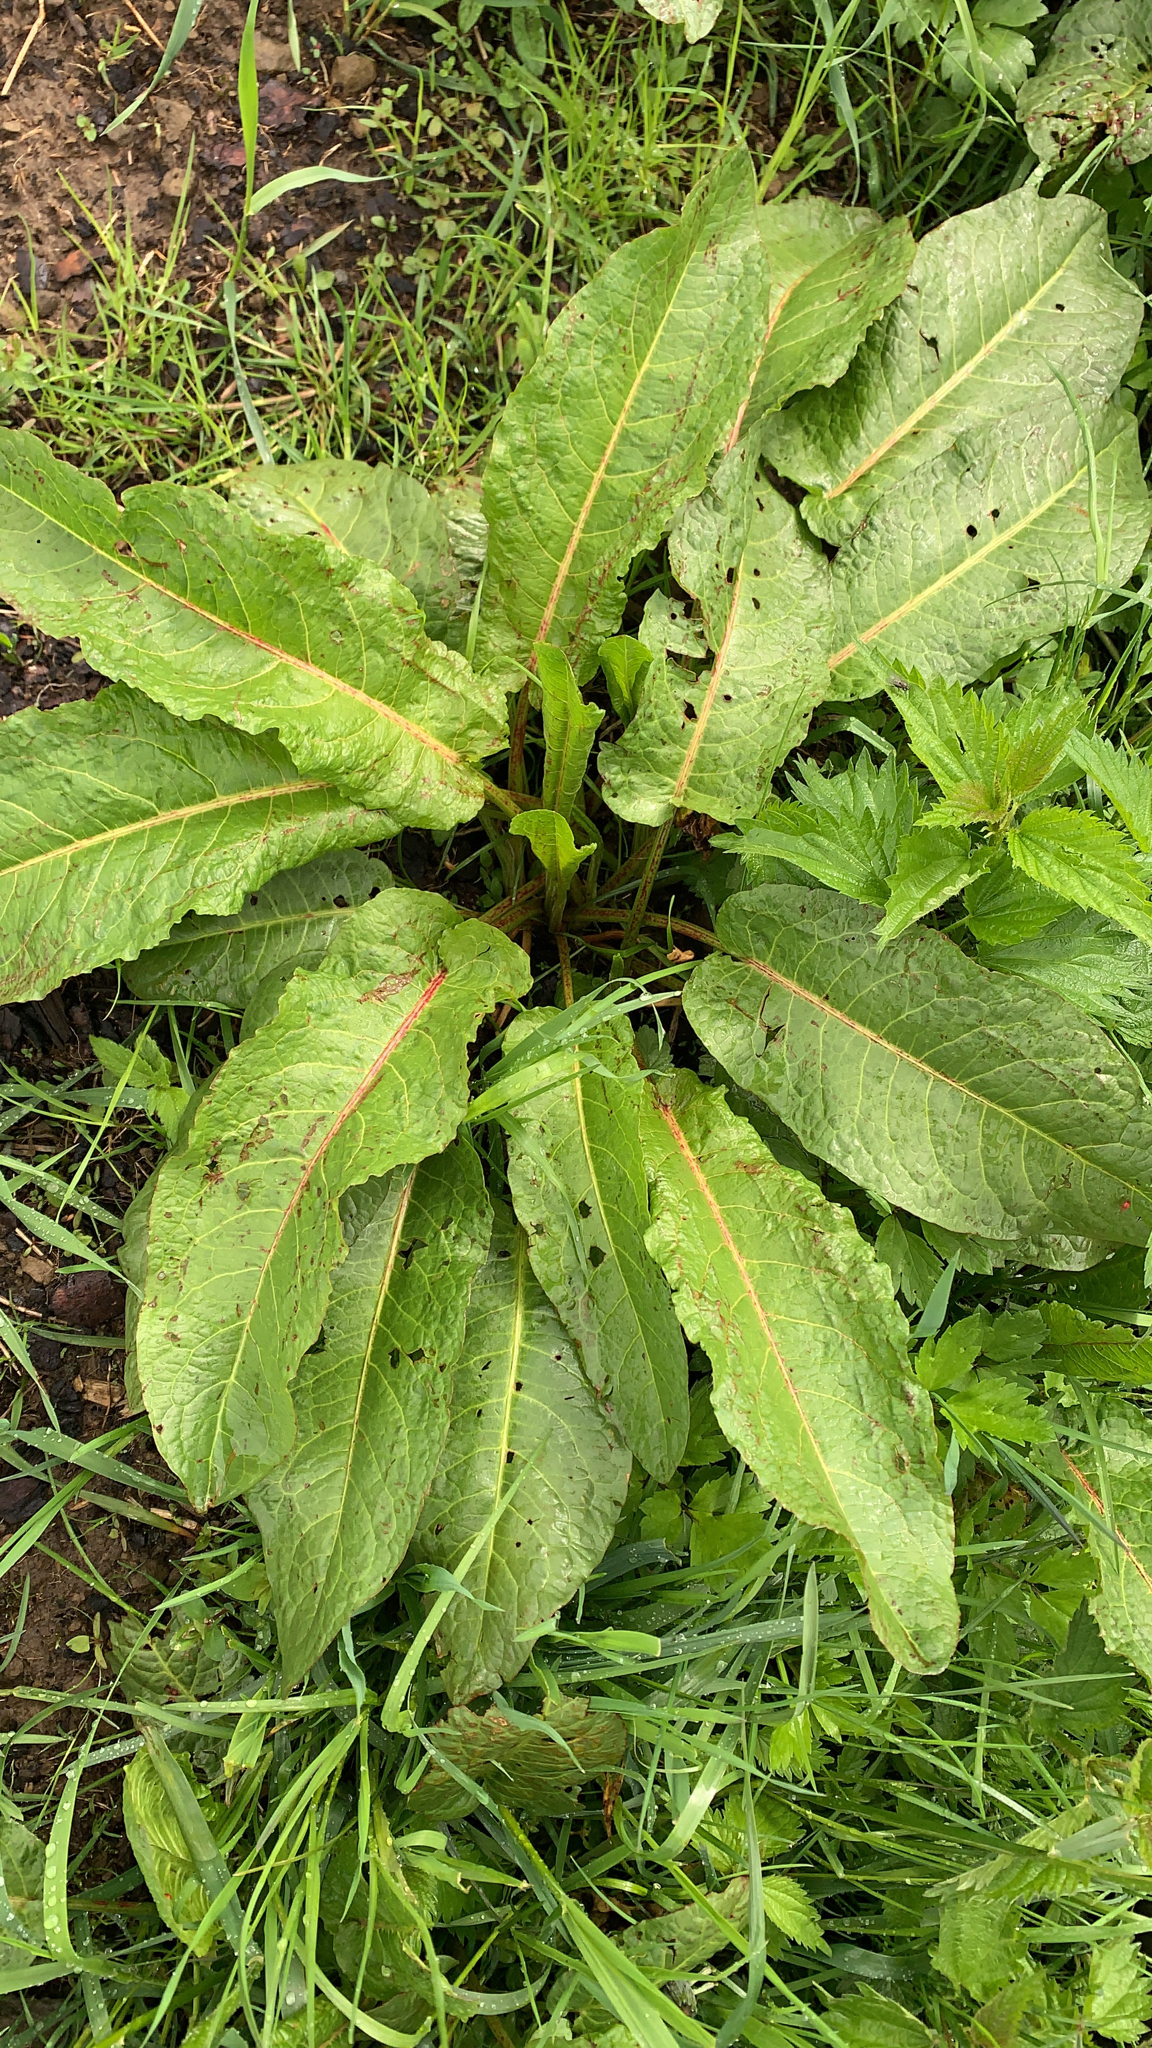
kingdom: Plantae
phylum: Tracheophyta
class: Magnoliopsida
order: Caryophyllales
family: Polygonaceae
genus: Rumex
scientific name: Rumex obtusifolius
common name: Bitter dock
